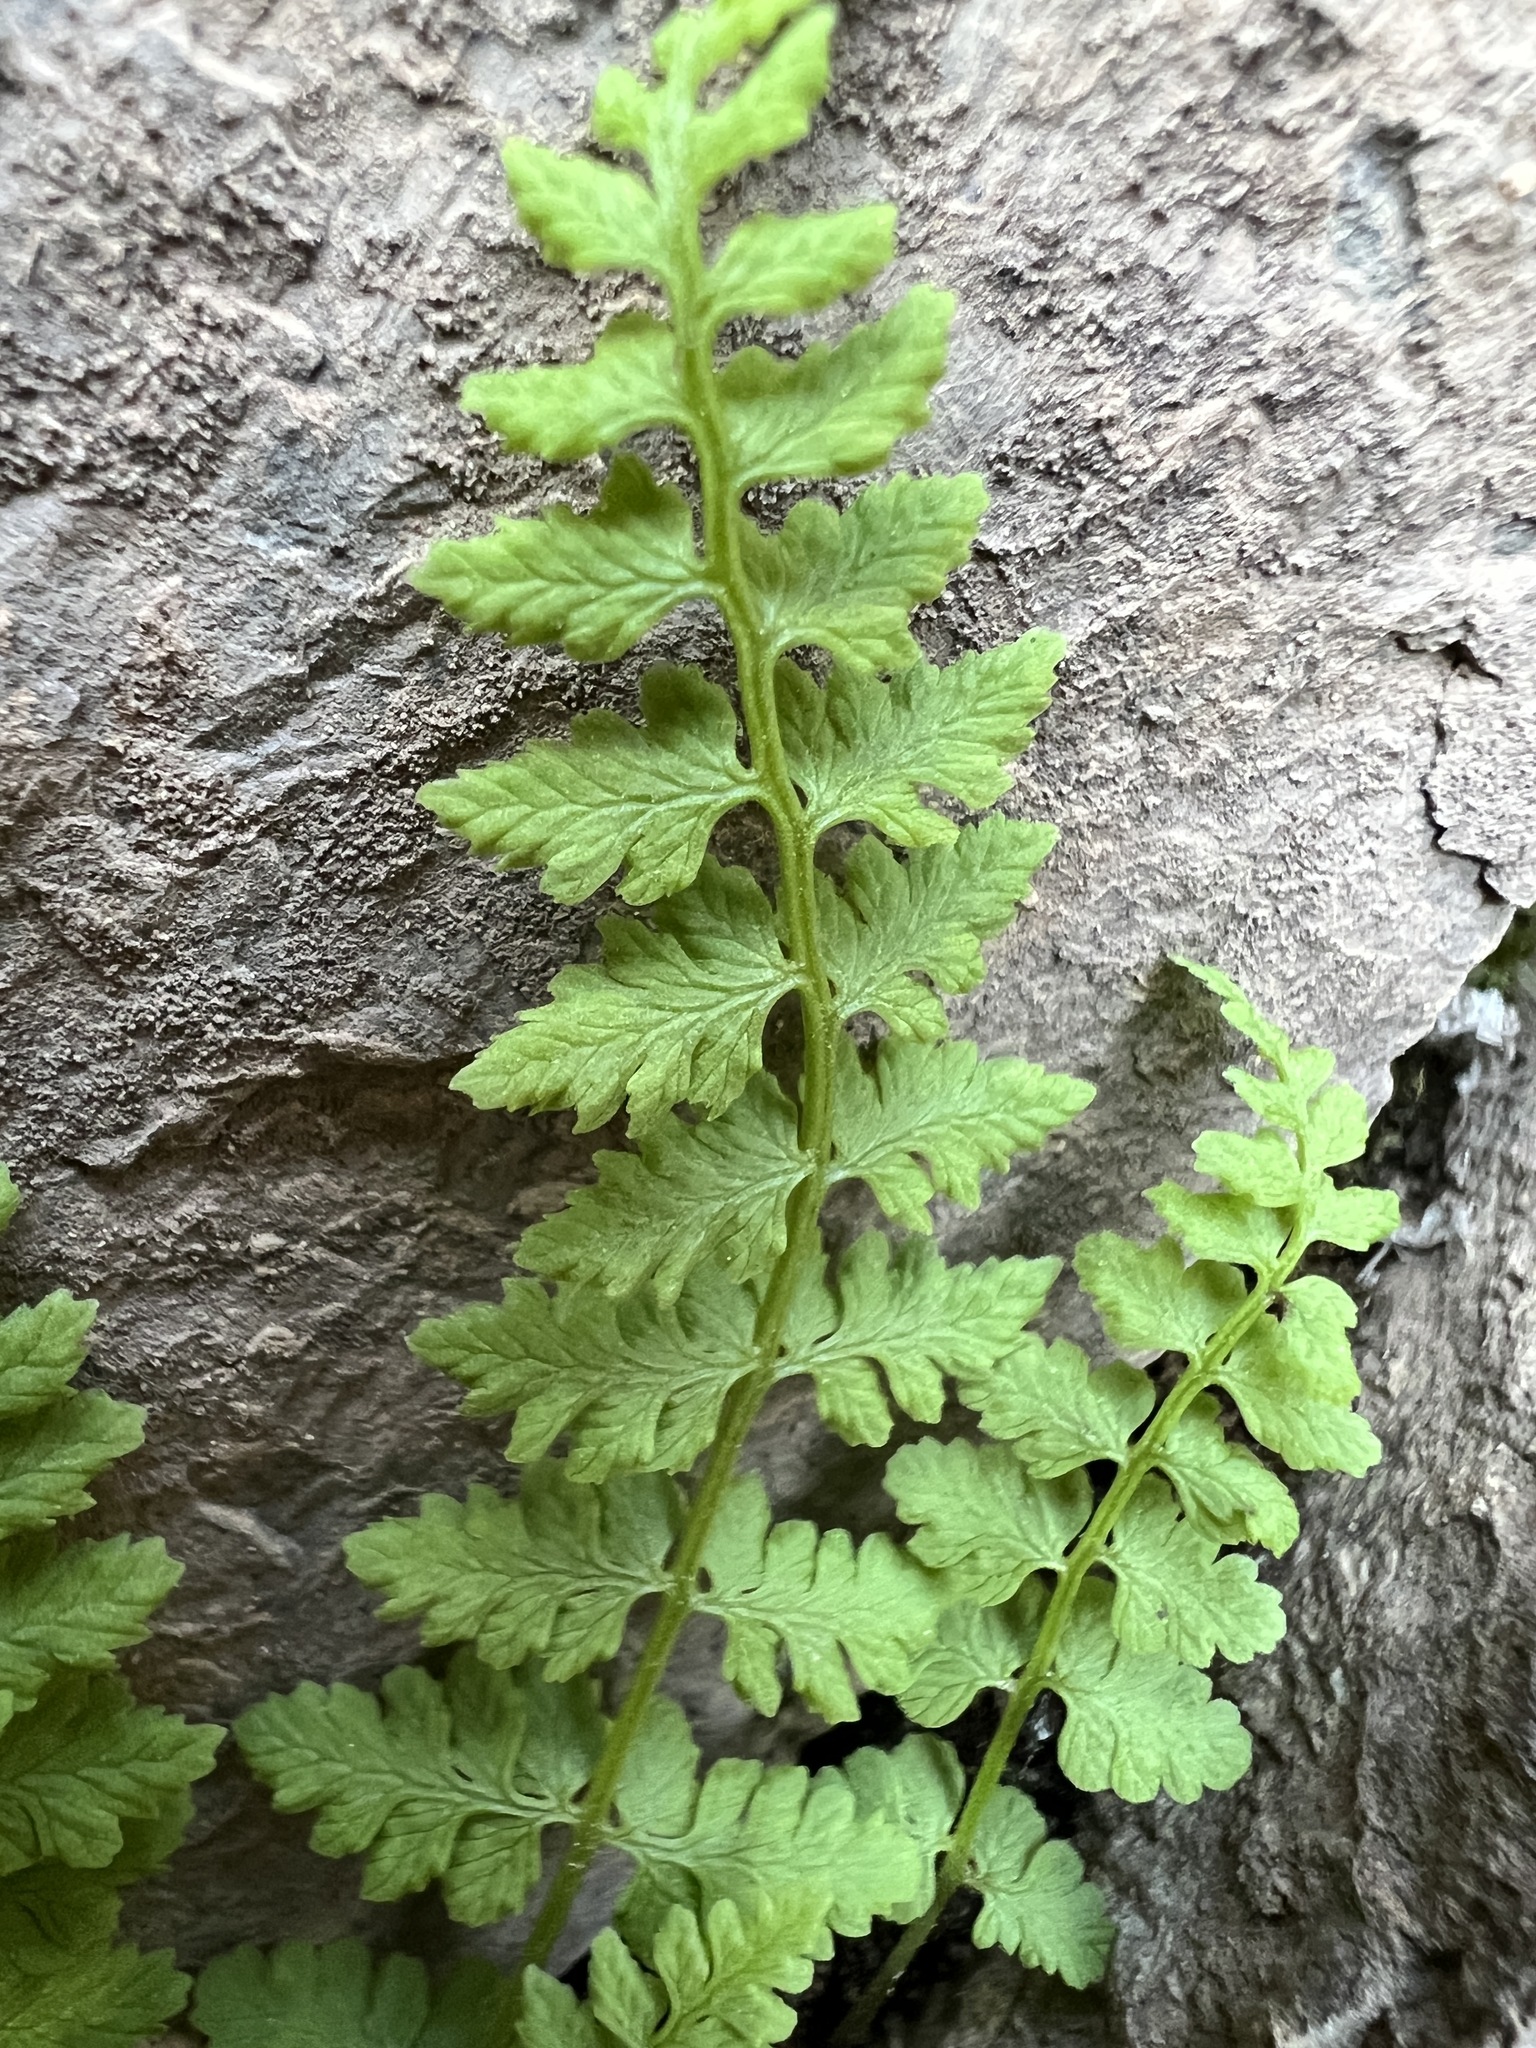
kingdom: Plantae
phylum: Tracheophyta
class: Polypodiopsida
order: Polypodiales
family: Cystopteridaceae
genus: Cystopteris
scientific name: Cystopteris fragilis
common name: Brittle bladder fern
